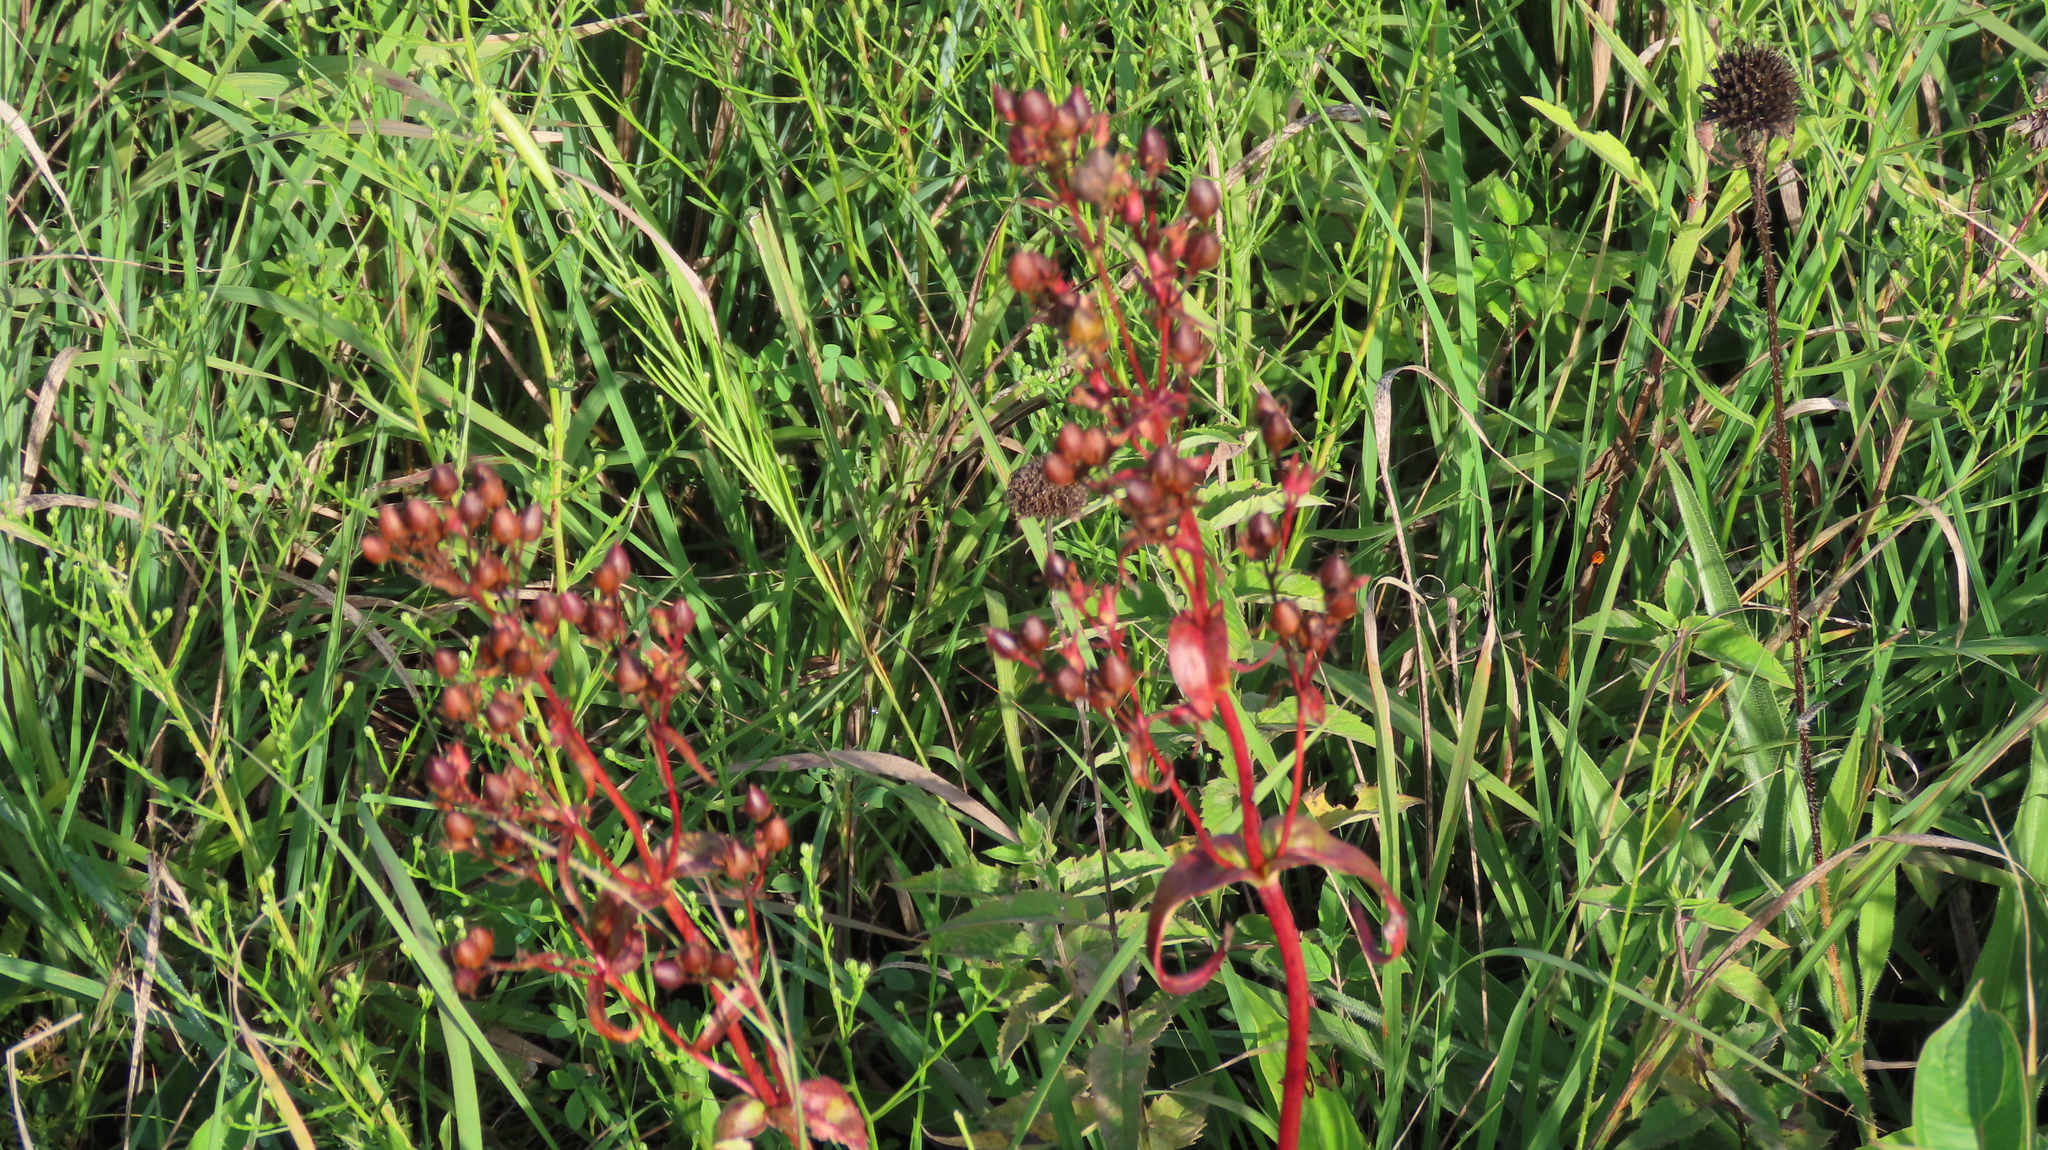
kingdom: Plantae
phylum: Tracheophyta
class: Magnoliopsida
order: Lamiales
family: Plantaginaceae
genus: Penstemon
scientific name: Penstemon digitalis
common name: Foxglove beardtongue
